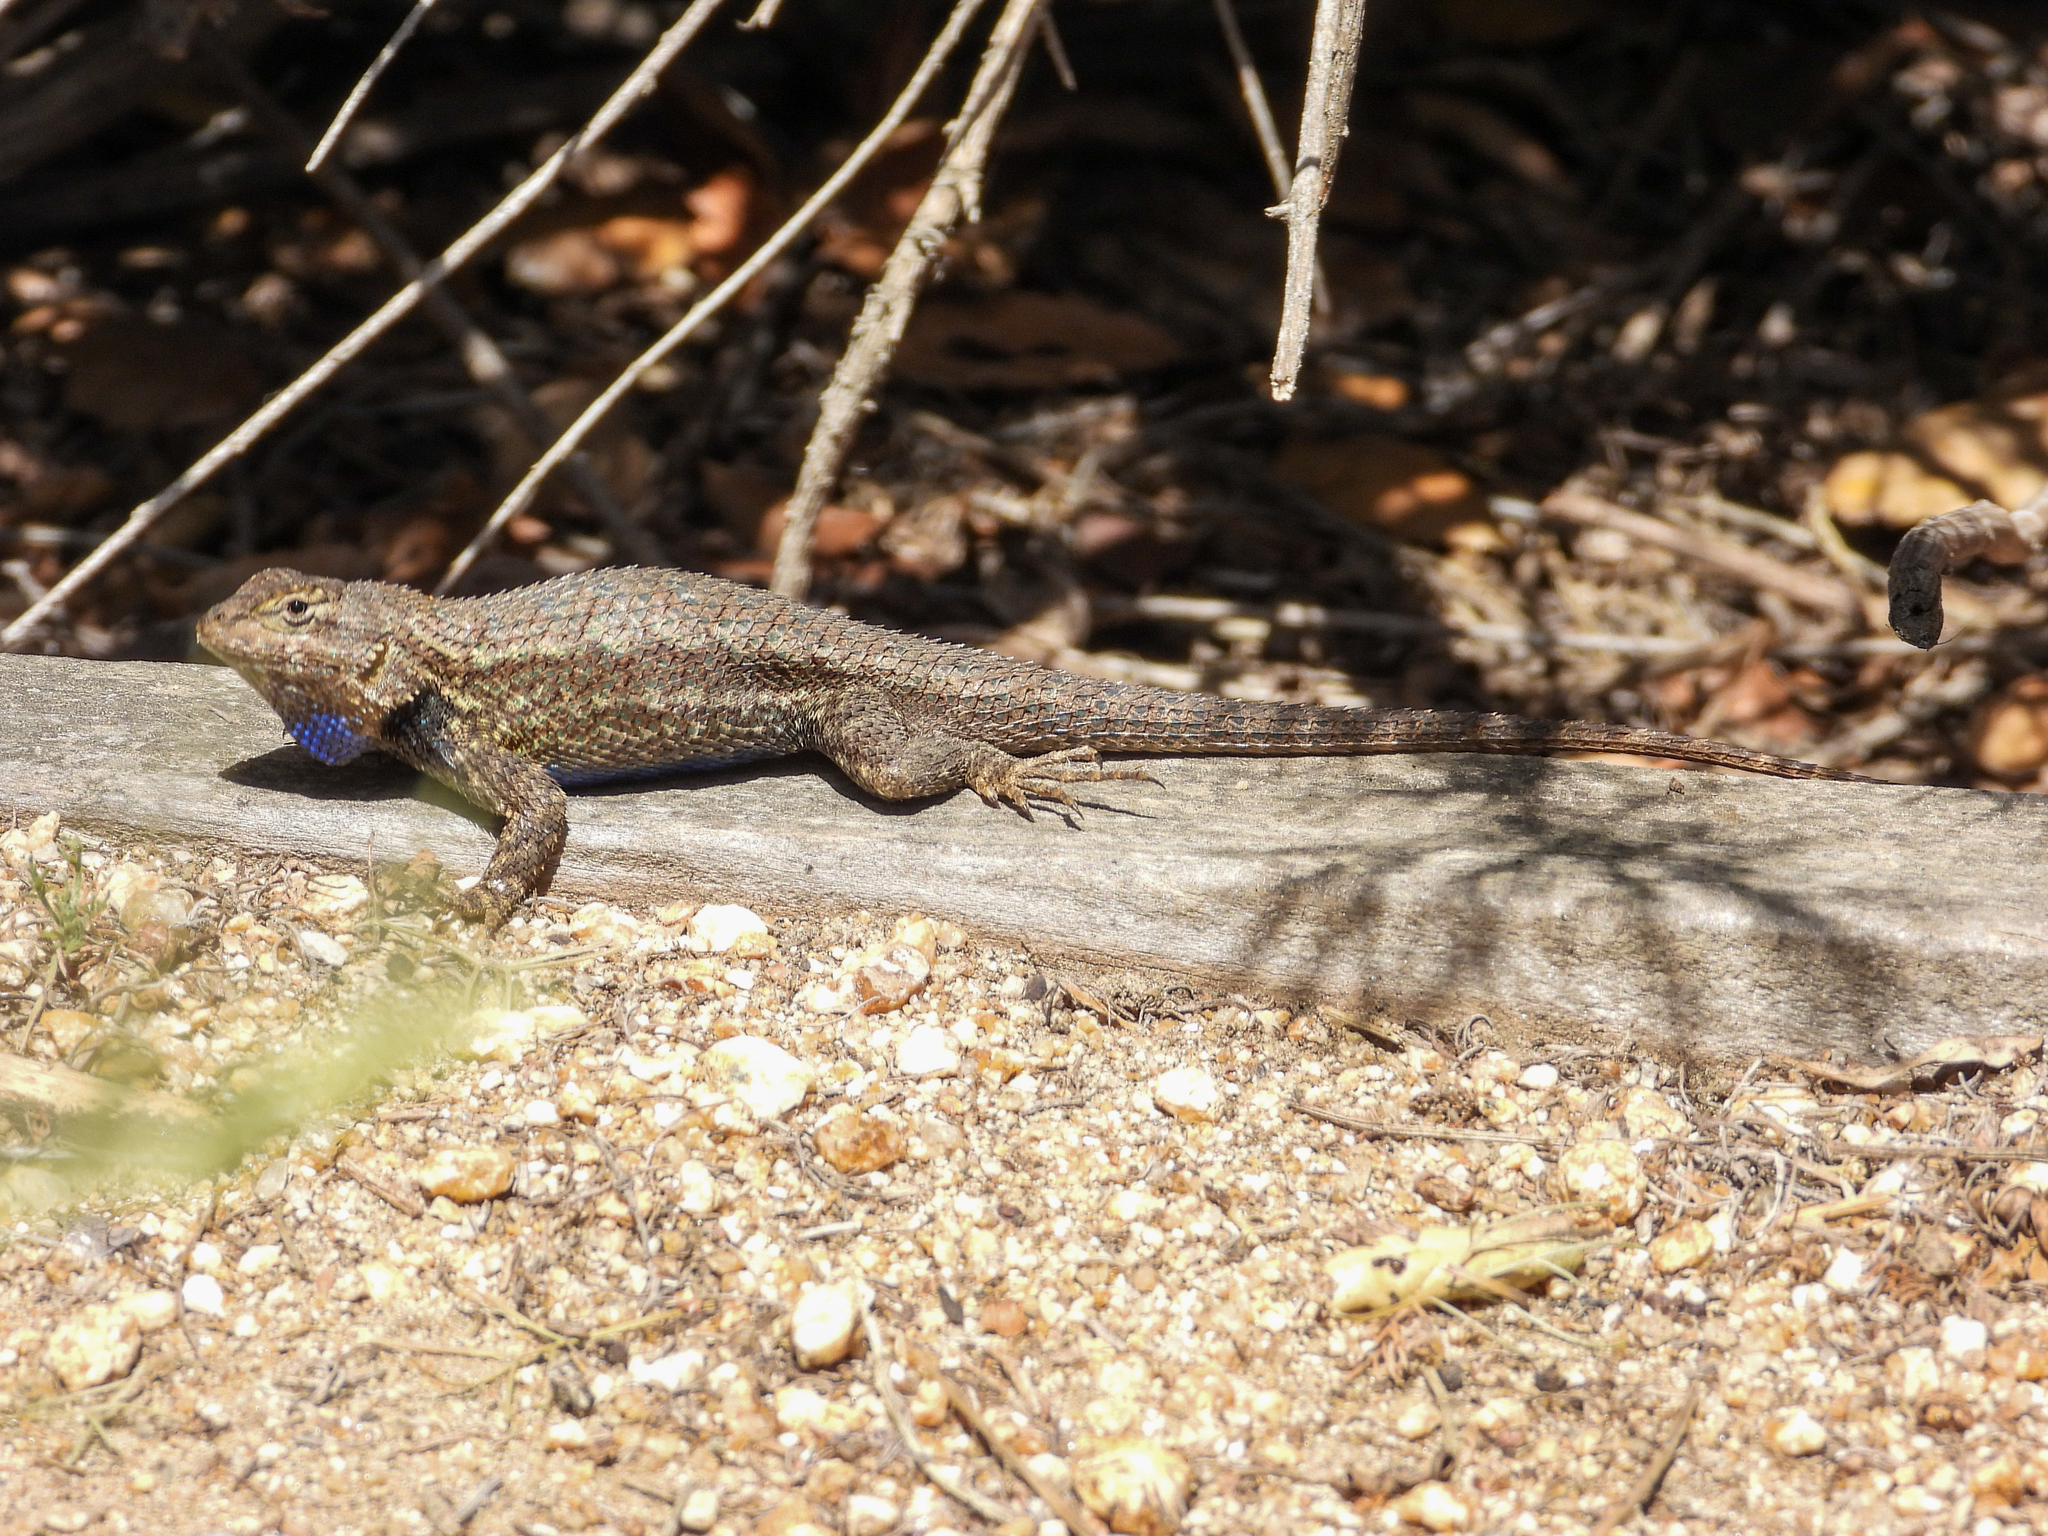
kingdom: Animalia
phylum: Chordata
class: Squamata
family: Phrynosomatidae
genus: Sceloporus
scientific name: Sceloporus occidentalis
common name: Western fence lizard
